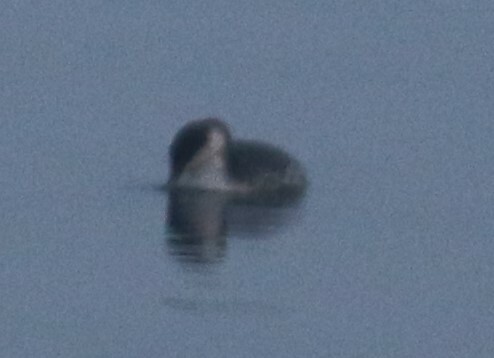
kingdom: Animalia
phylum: Chordata
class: Aves
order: Podicipediformes
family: Podicipedidae
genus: Podiceps
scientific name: Podiceps auritus
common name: Horned grebe
